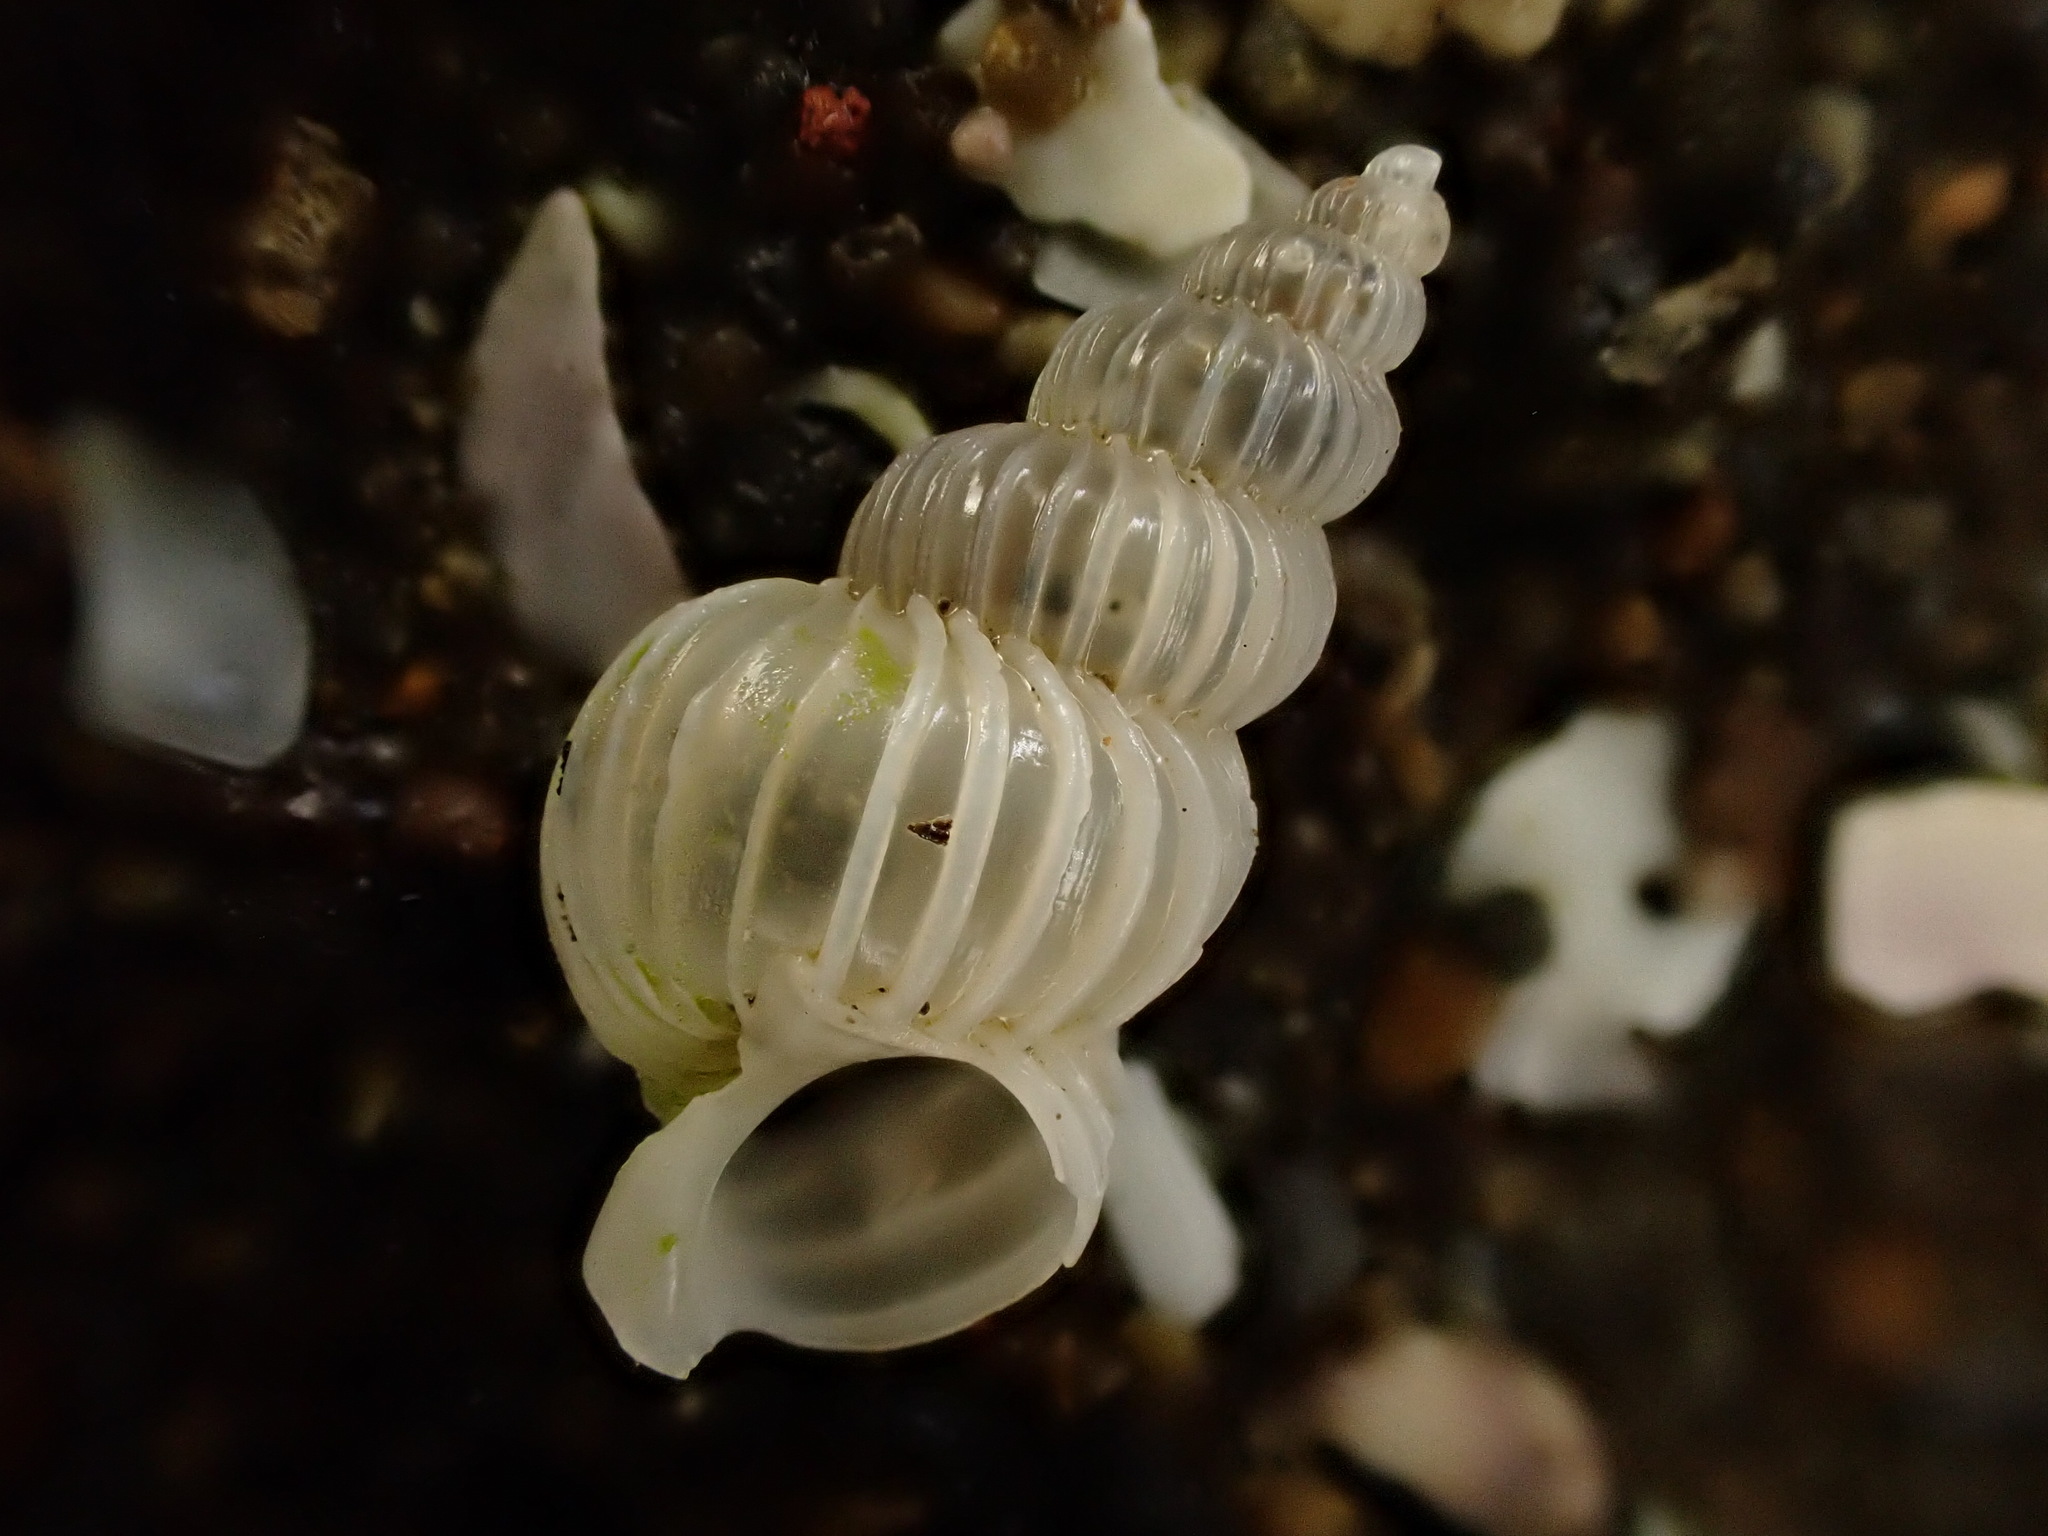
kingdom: Animalia
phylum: Mollusca
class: Gastropoda
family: Epitoniidae
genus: Epitonium
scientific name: Epitonium tenellum
